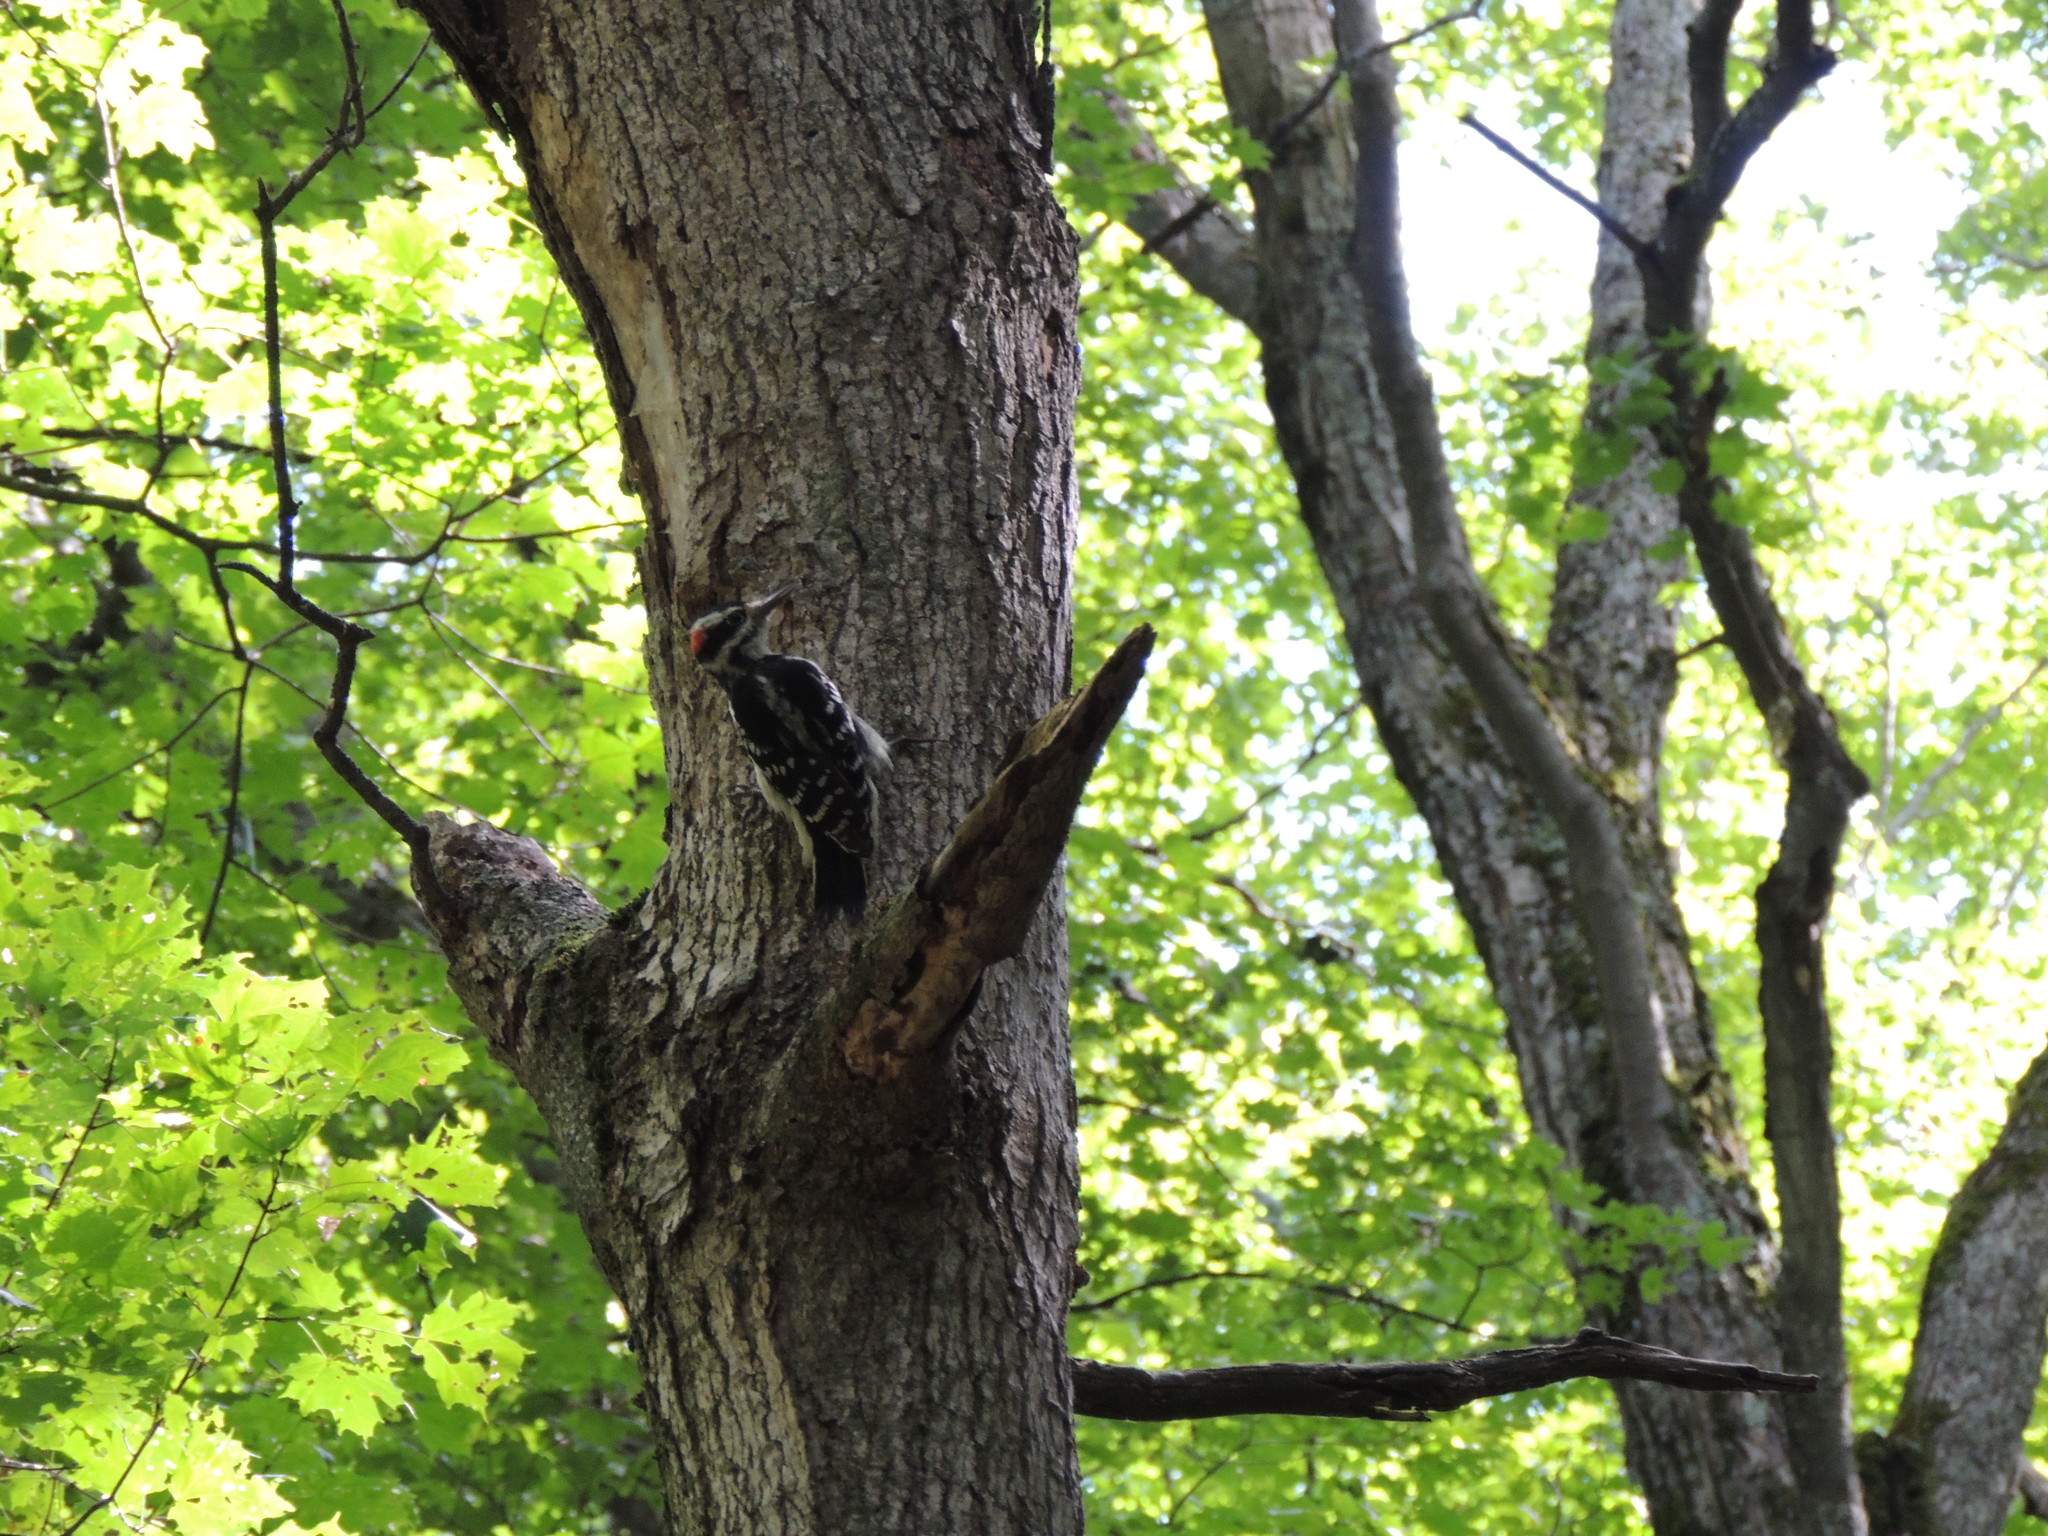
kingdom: Animalia
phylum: Chordata
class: Aves
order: Piciformes
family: Picidae
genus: Leuconotopicus
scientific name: Leuconotopicus villosus
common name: Hairy woodpecker
